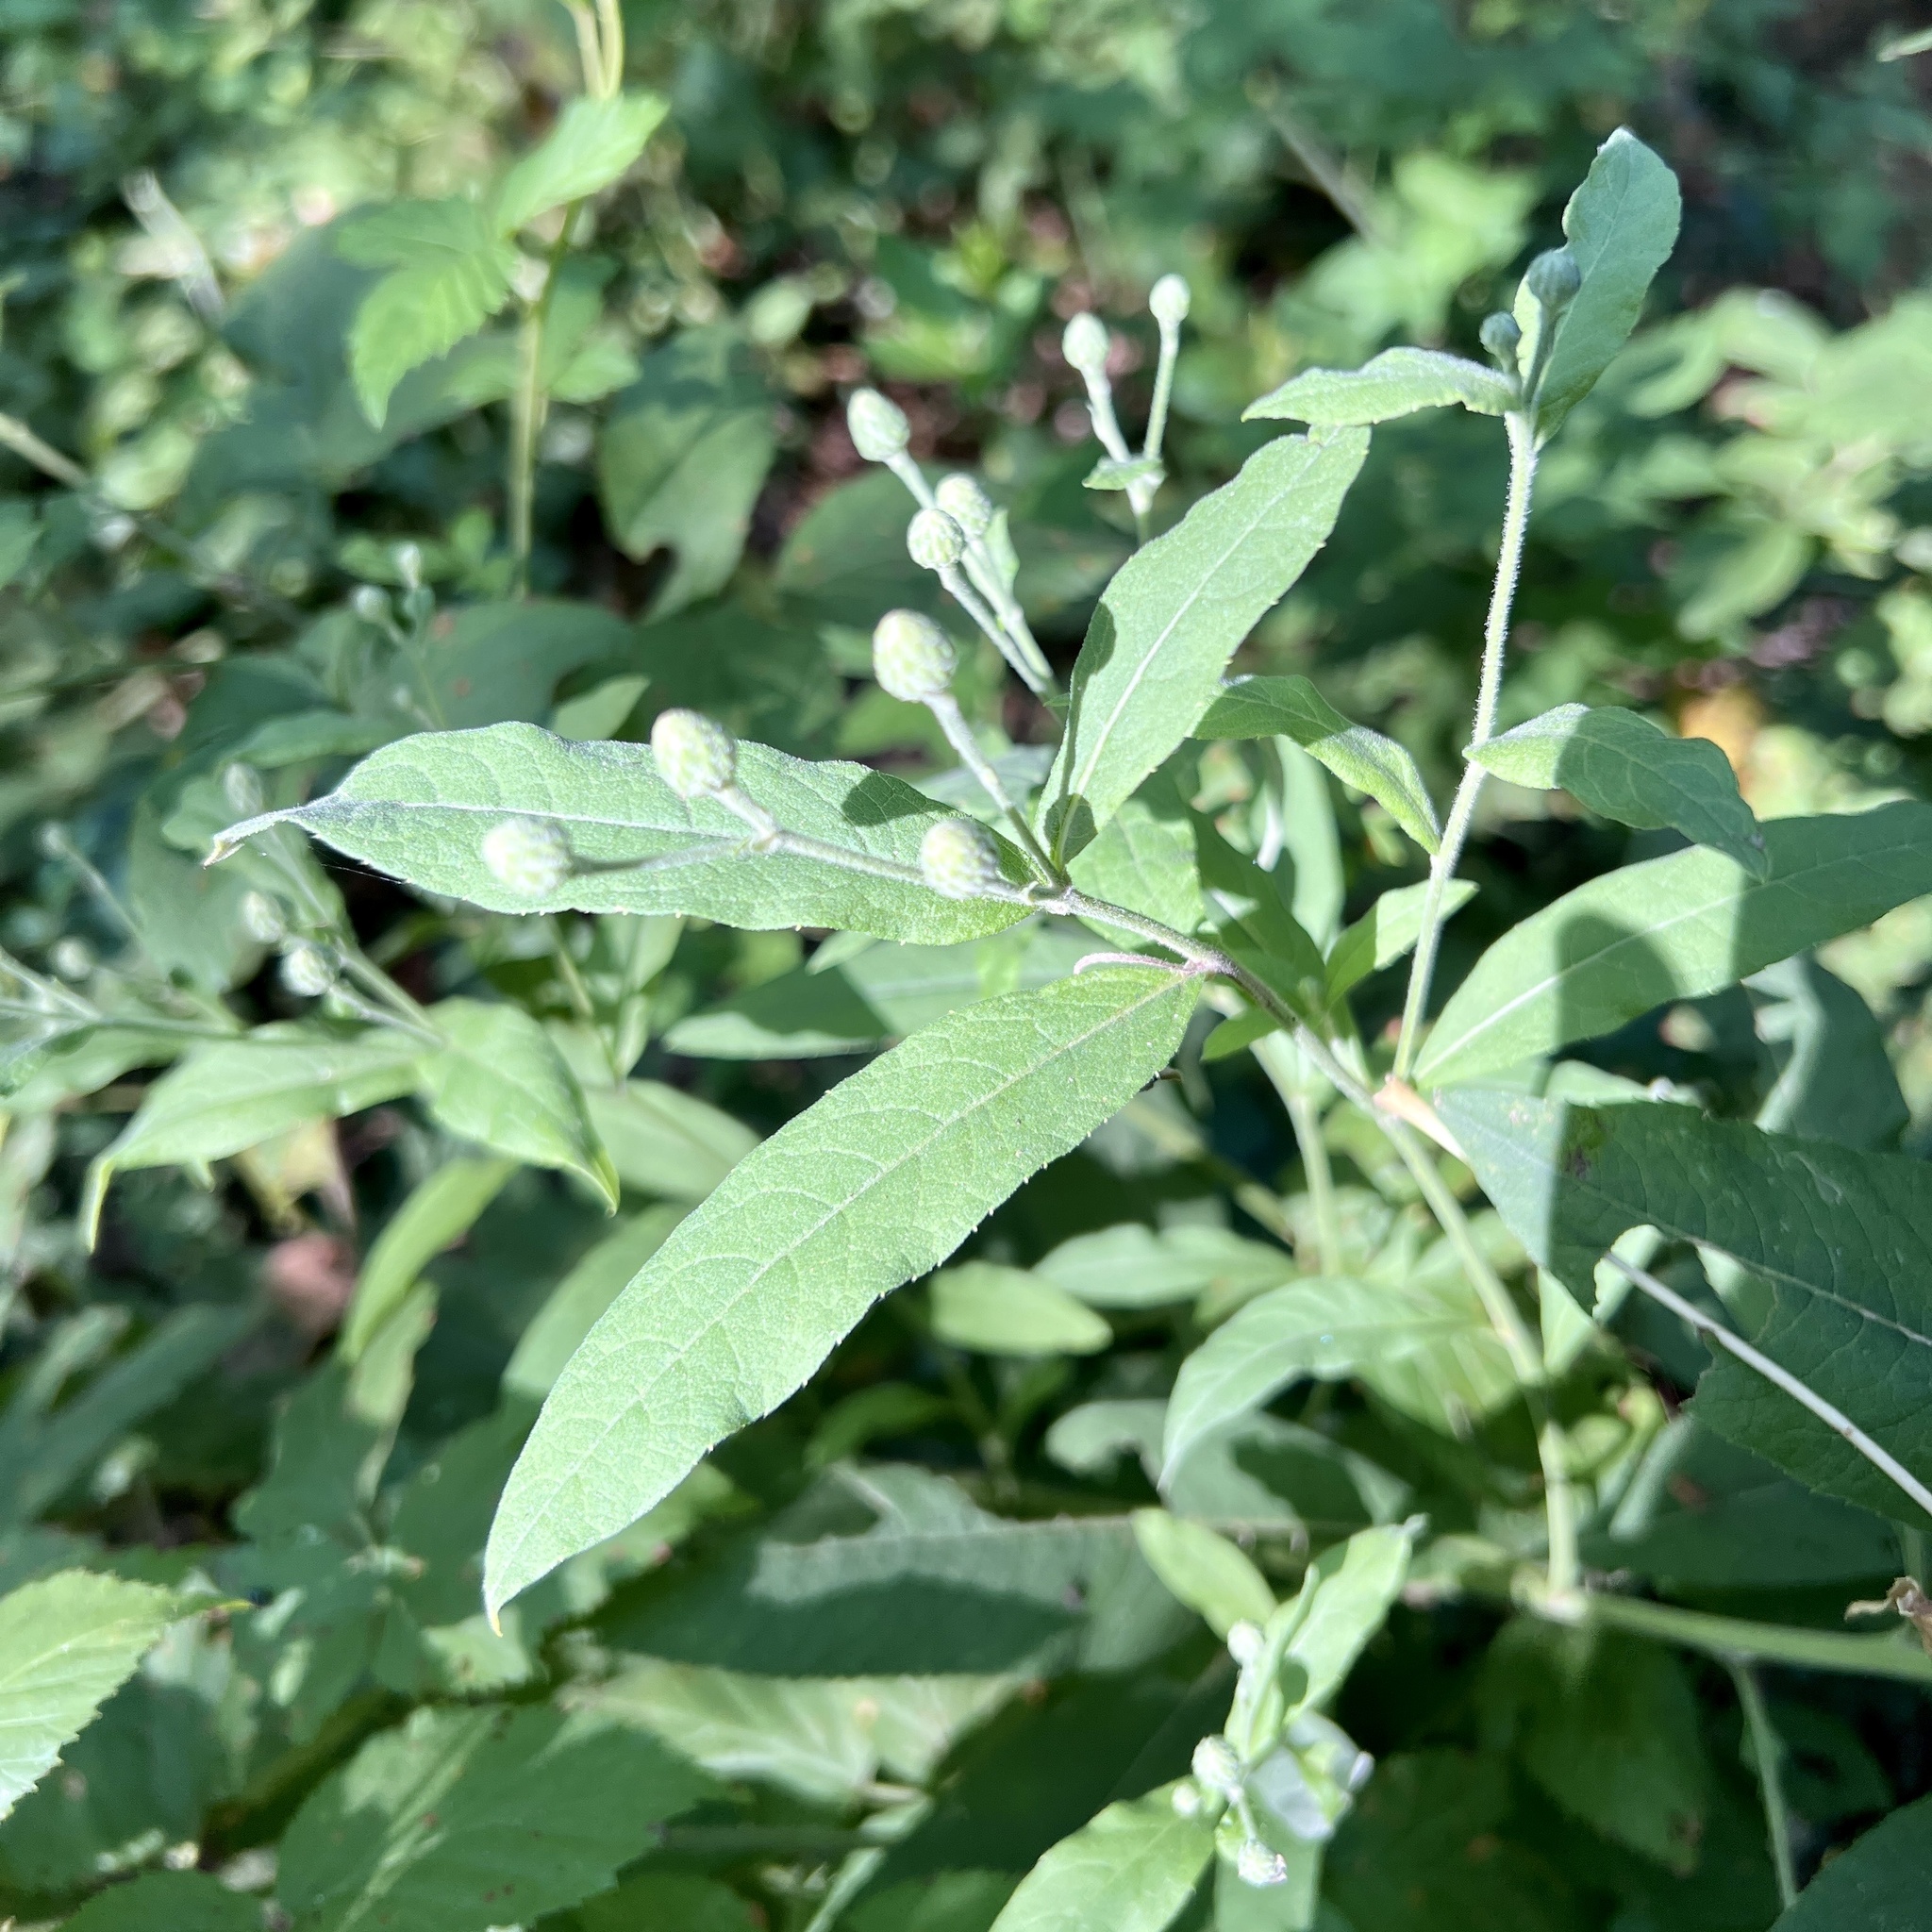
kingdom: Plantae
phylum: Tracheophyta
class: Magnoliopsida
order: Asterales
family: Asteraceae
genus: Vernonia
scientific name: Vernonia missurica
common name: Missouri ironweed
